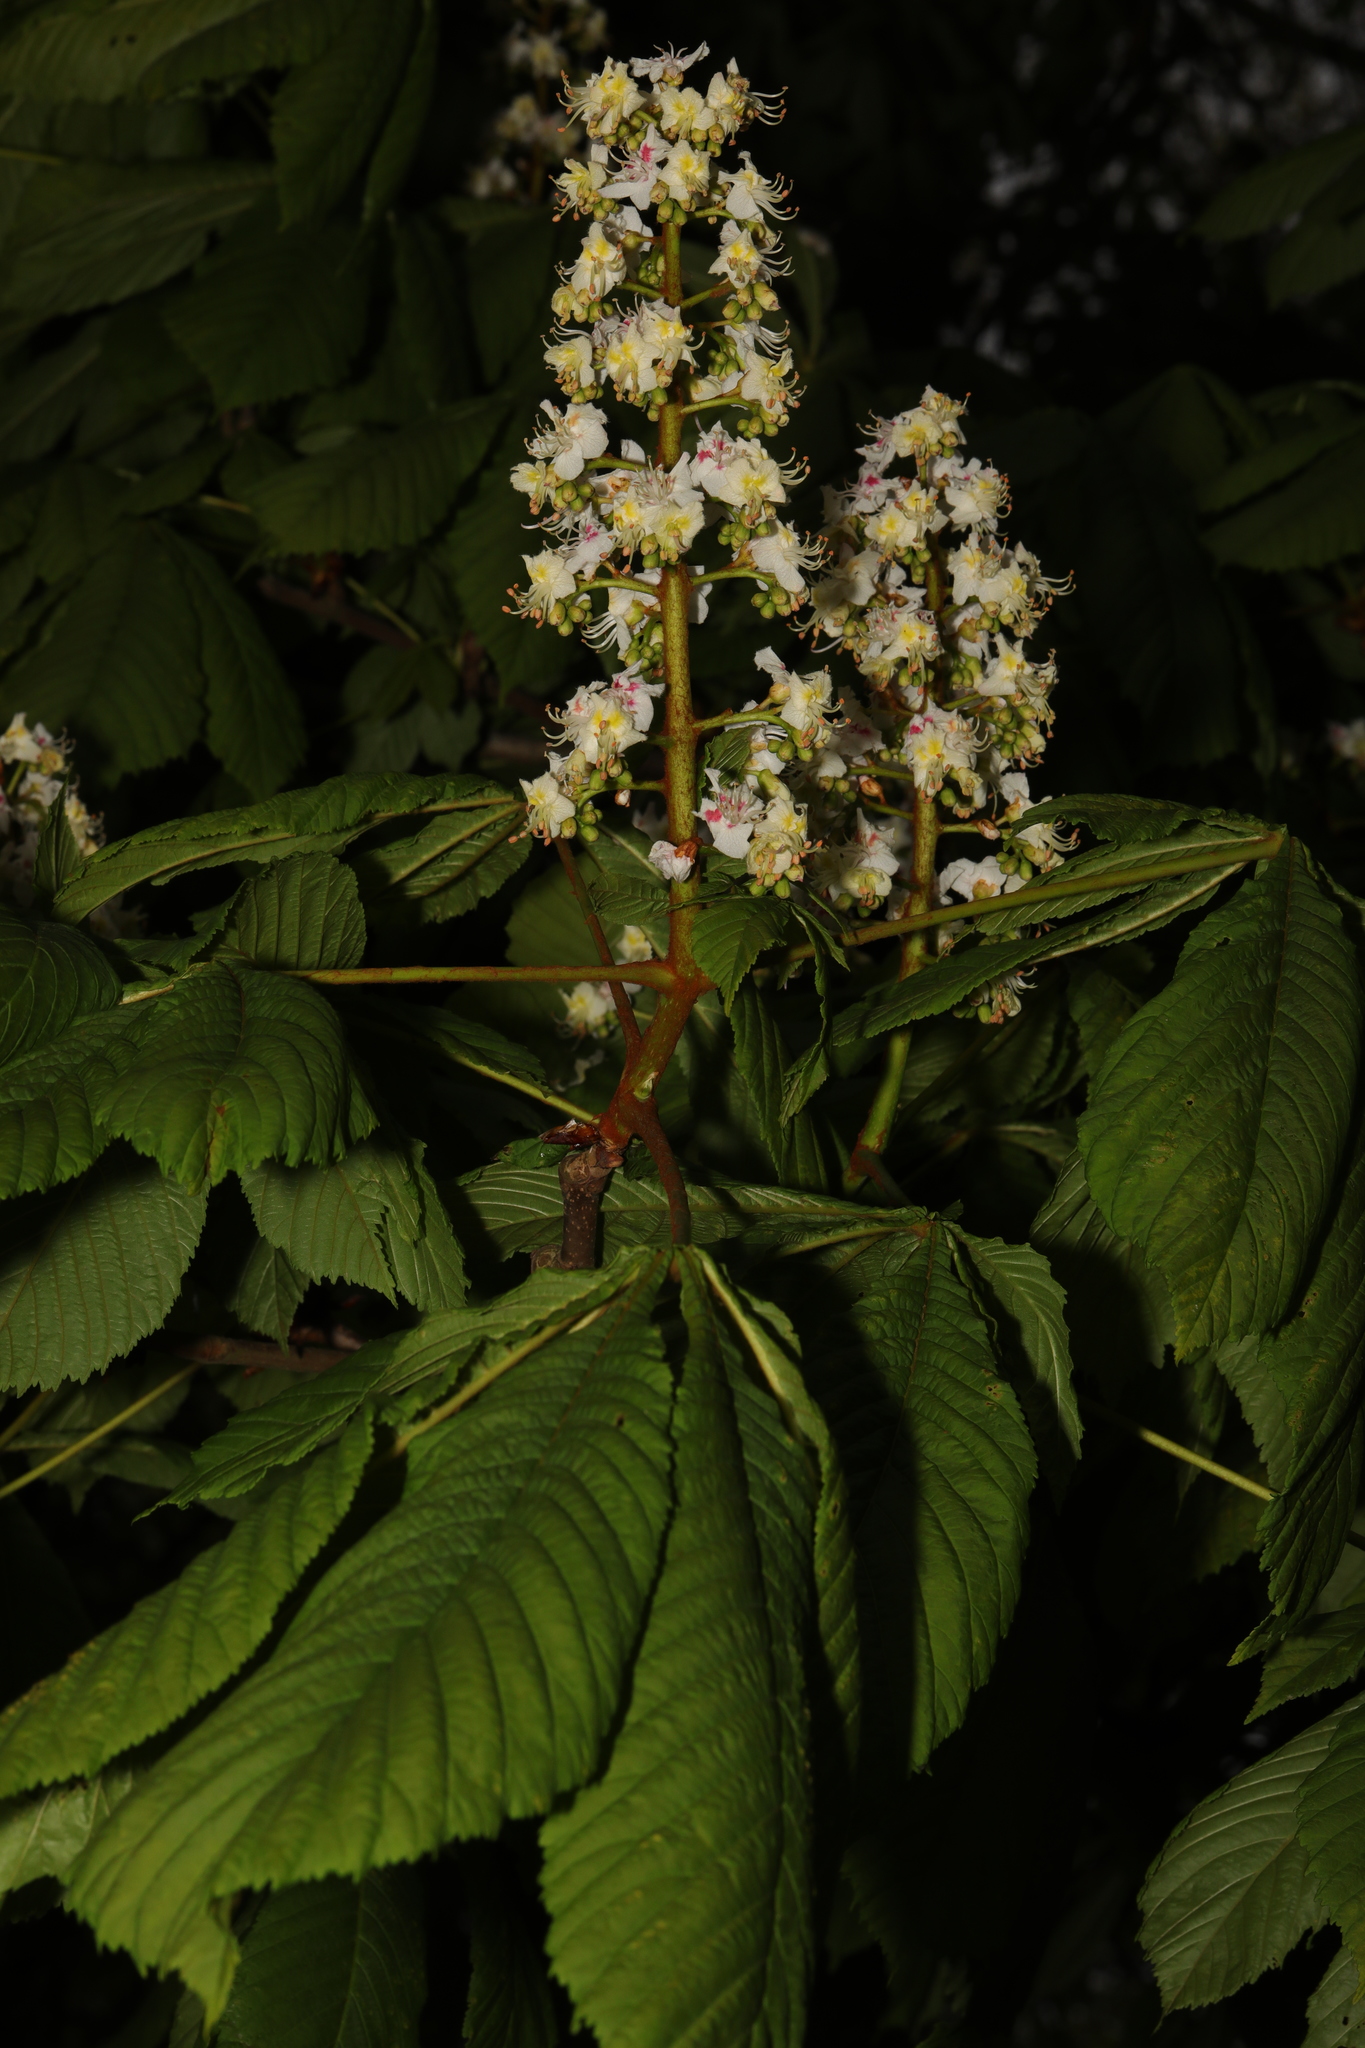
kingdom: Plantae
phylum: Tracheophyta
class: Magnoliopsida
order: Sapindales
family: Sapindaceae
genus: Aesculus
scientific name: Aesculus hippocastanum
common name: Horse-chestnut
